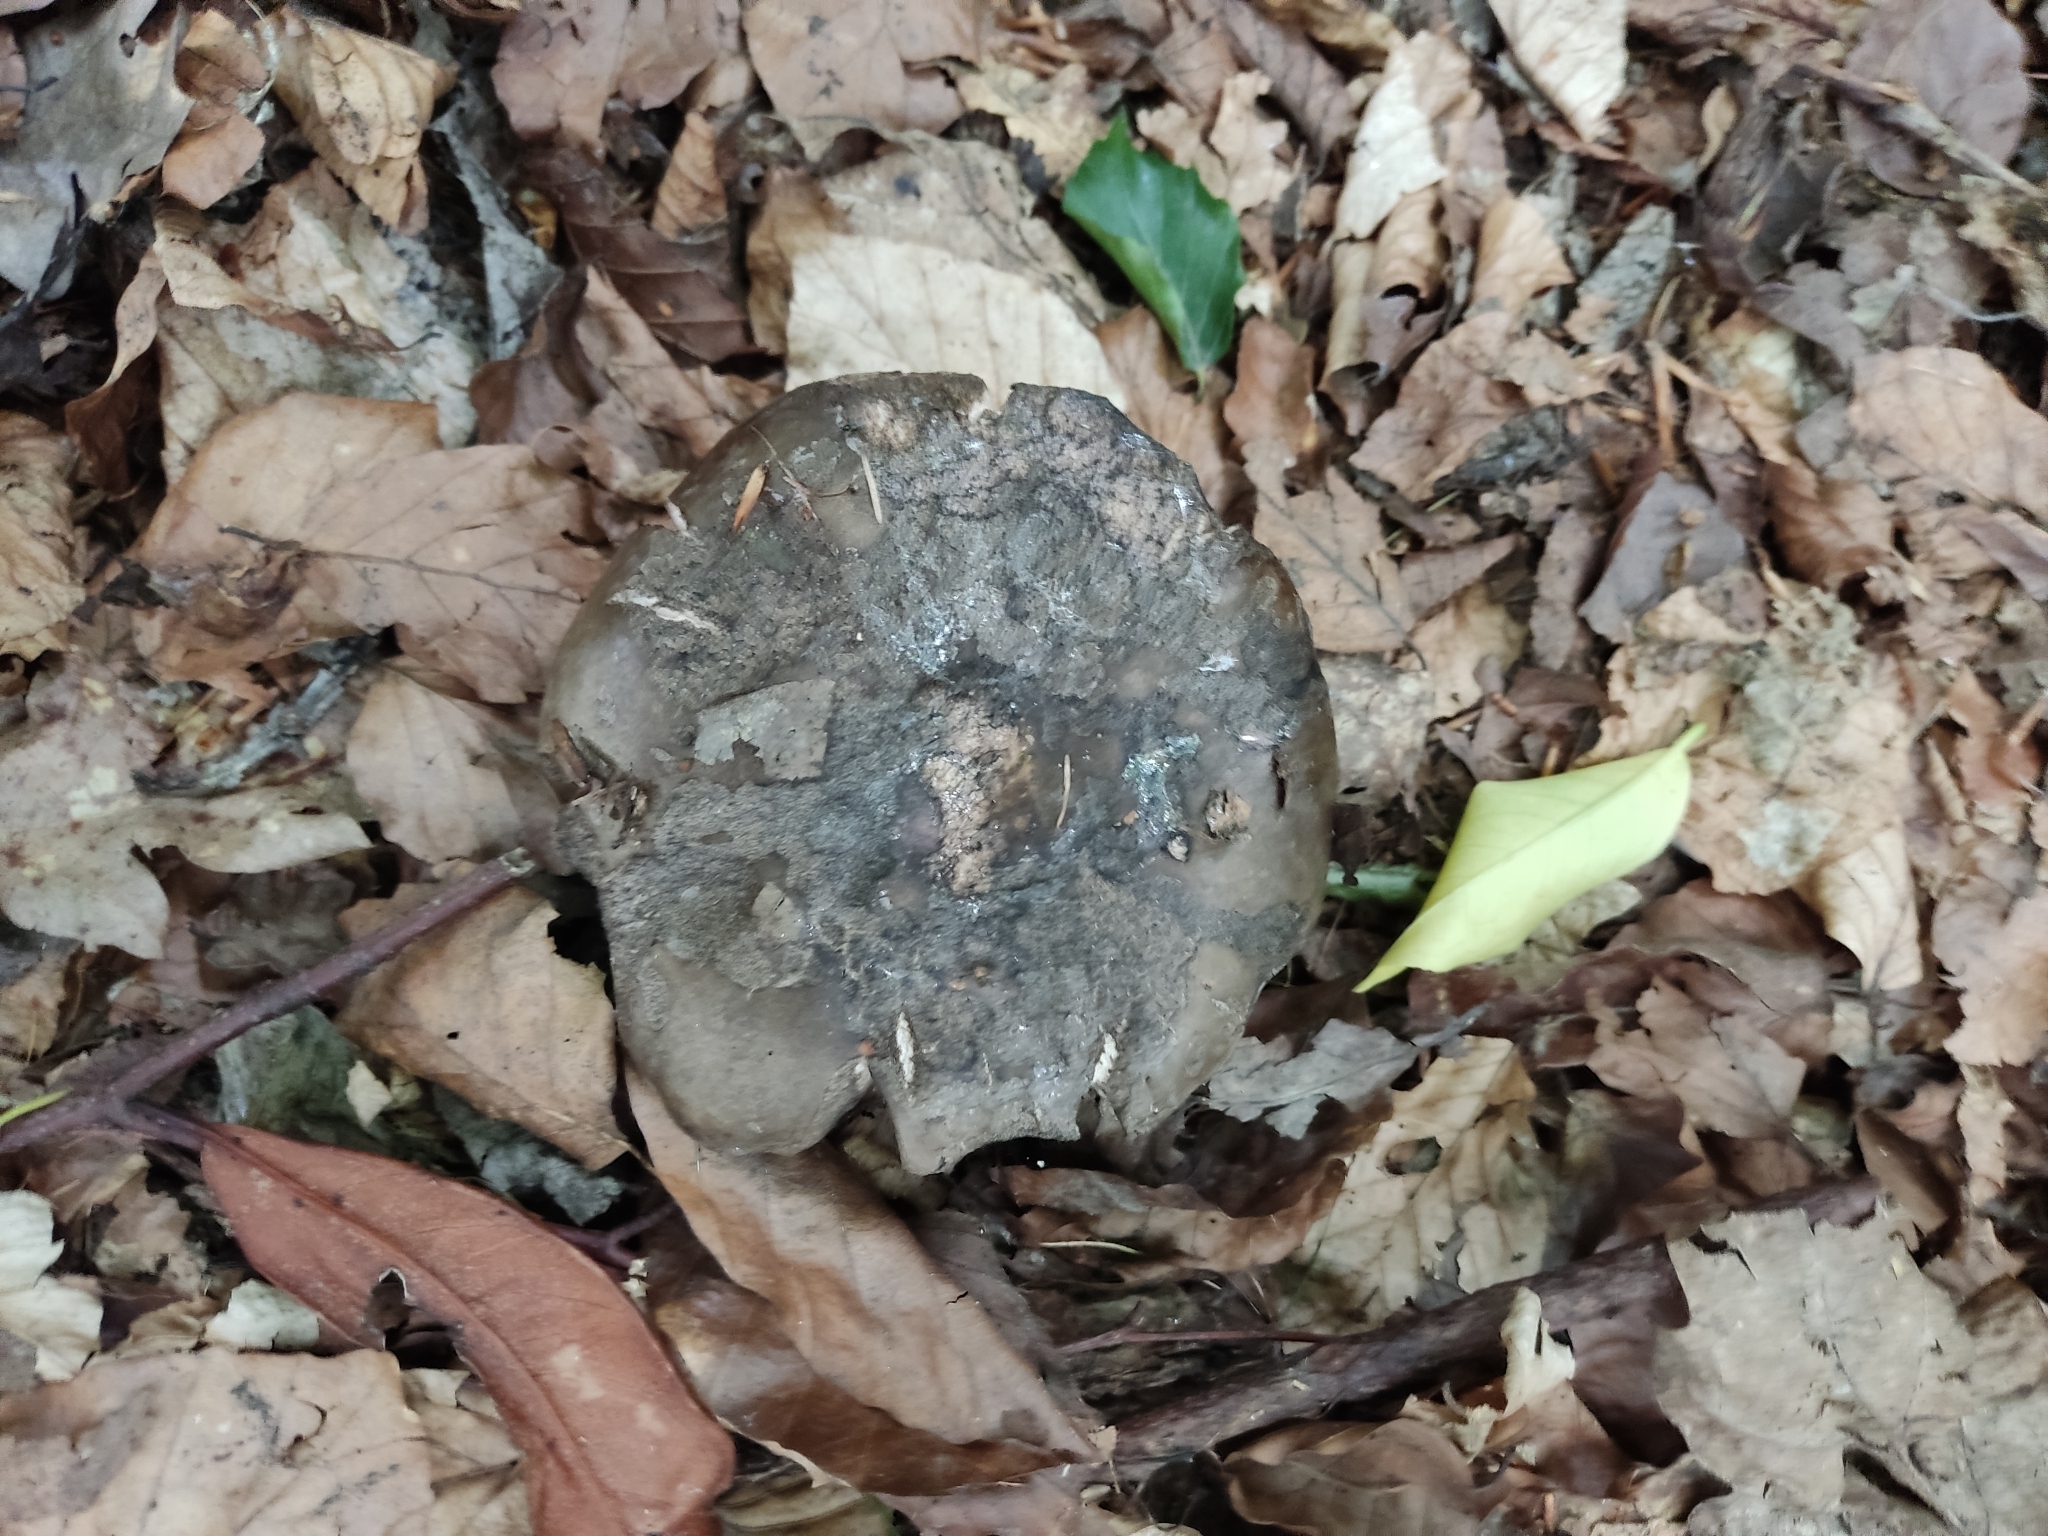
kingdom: Fungi
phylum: Basidiomycota
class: Agaricomycetes
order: Russulales
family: Russulaceae
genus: Russula
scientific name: Russula adusta
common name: Winecork brittlegill
